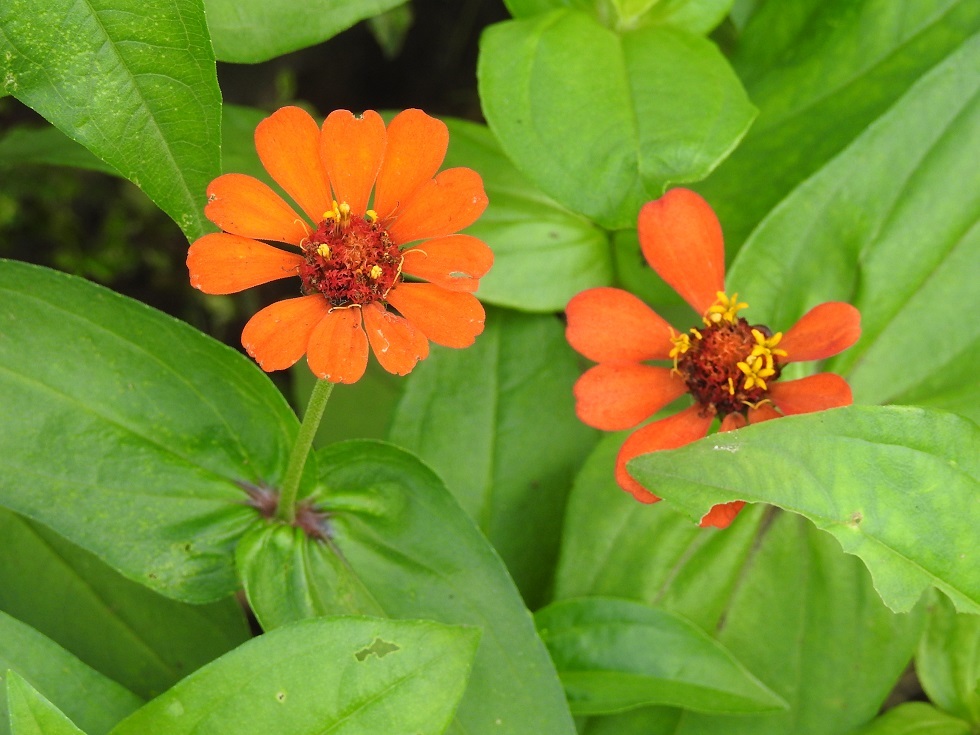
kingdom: Plantae
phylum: Tracheophyta
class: Magnoliopsida
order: Asterales
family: Asteraceae
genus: Zinnia
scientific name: Zinnia elegans
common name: Youth-and-age
